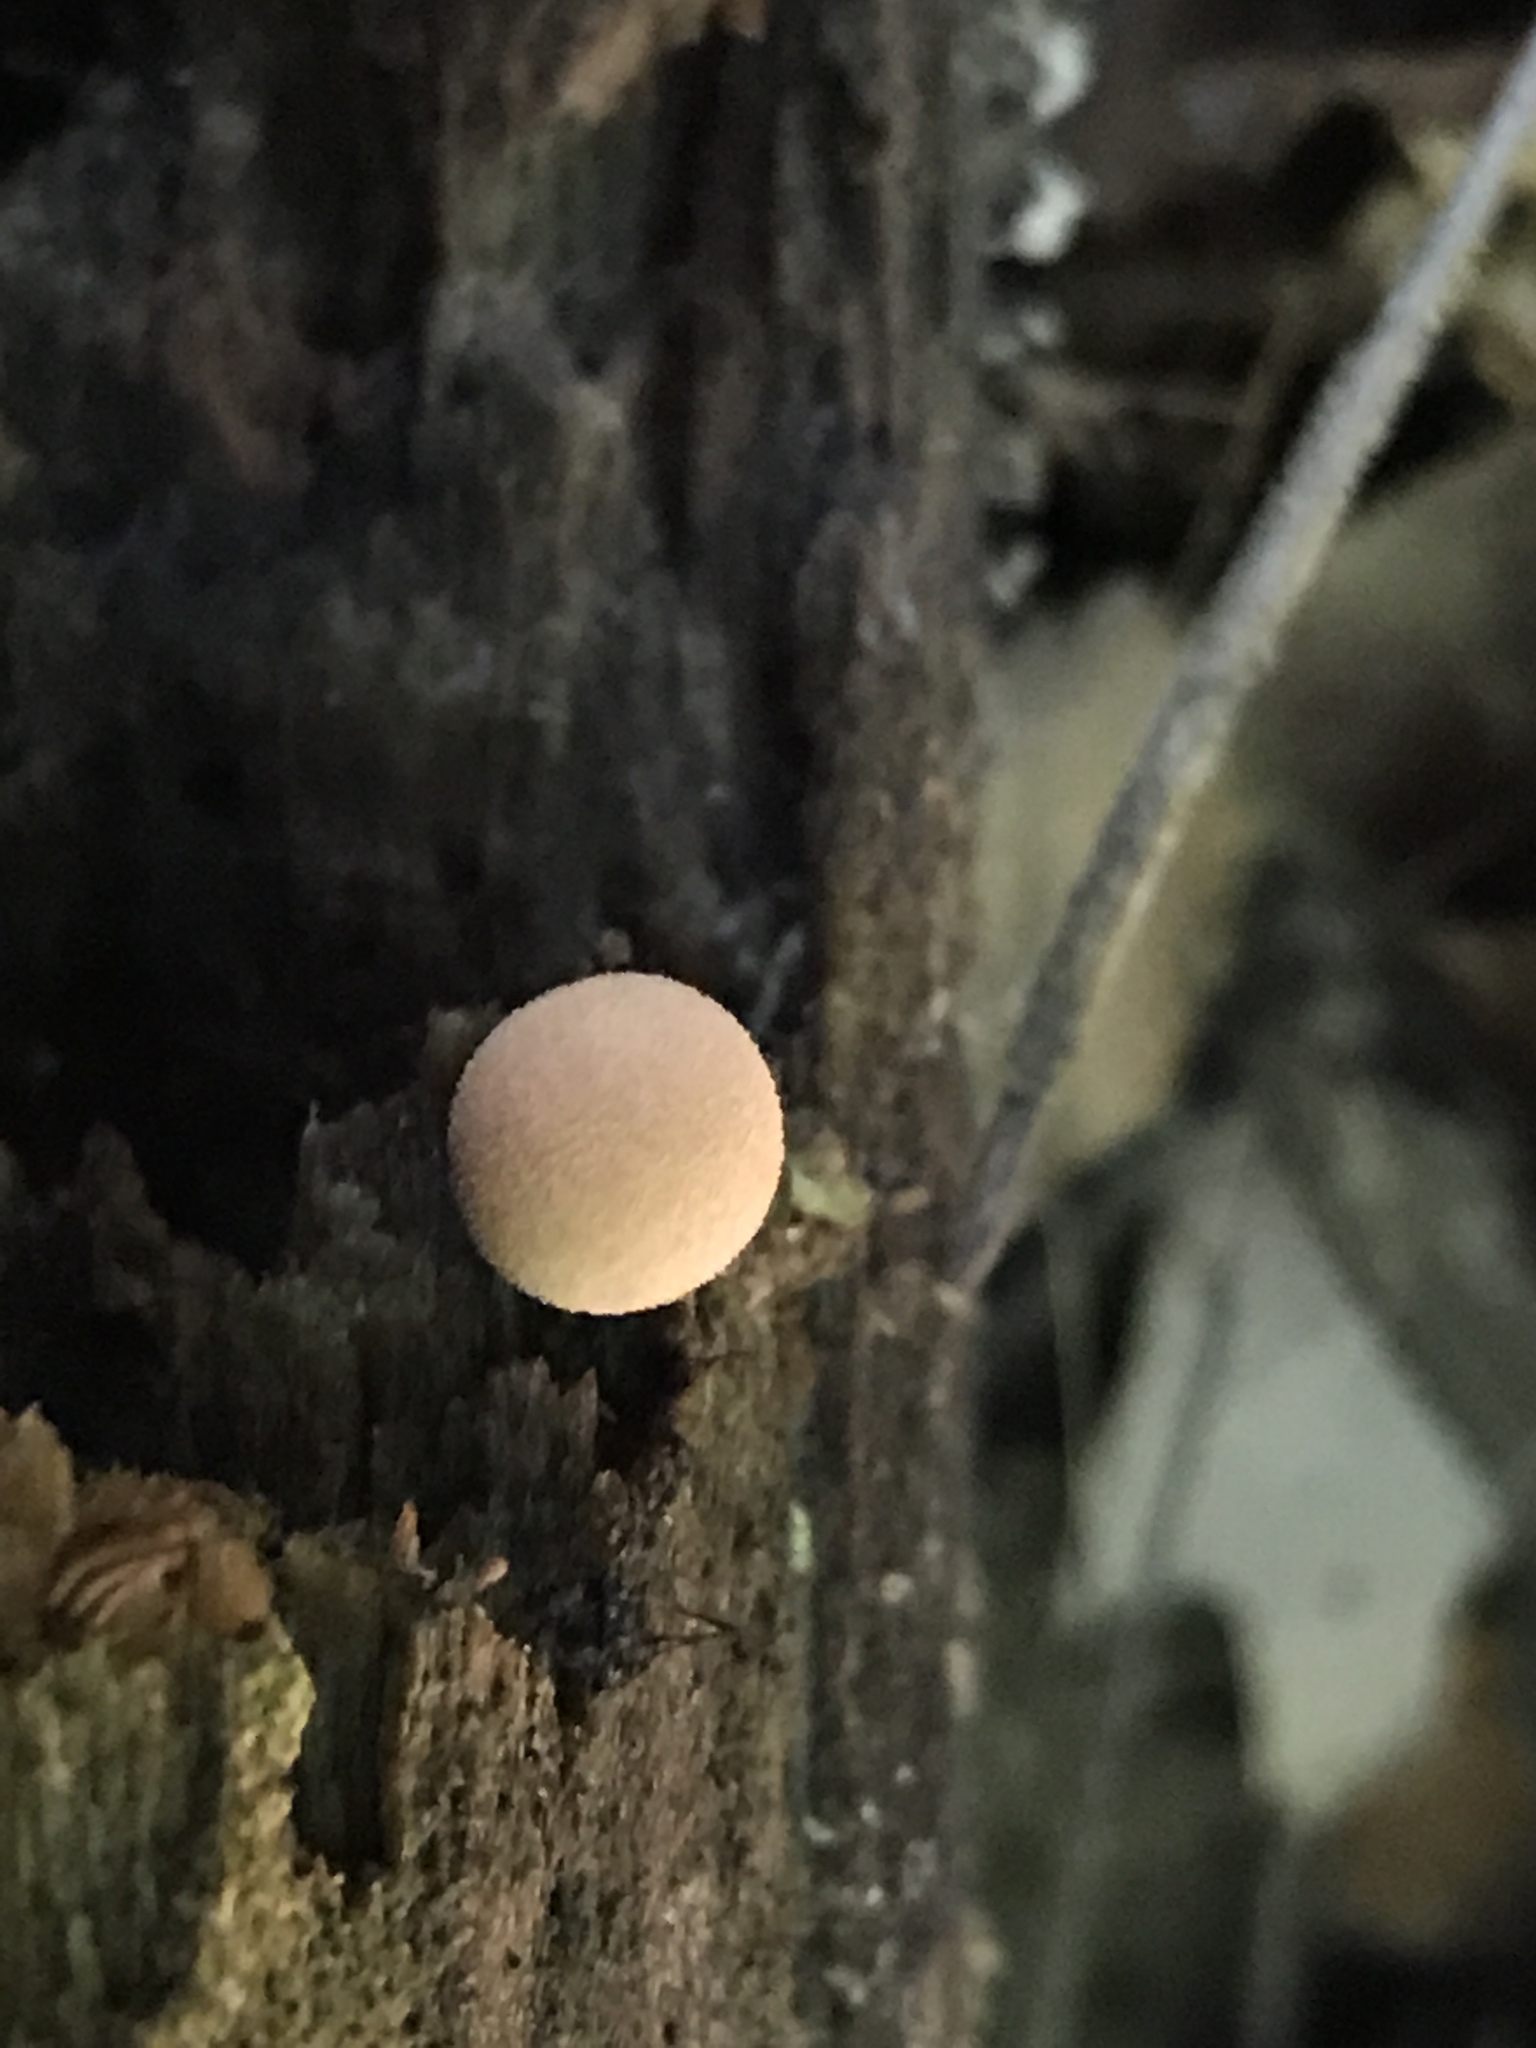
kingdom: Protozoa
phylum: Mycetozoa
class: Myxomycetes
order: Cribrariales
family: Tubiferaceae
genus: Lycogala
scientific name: Lycogala epidendrum
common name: Wolf's milk
